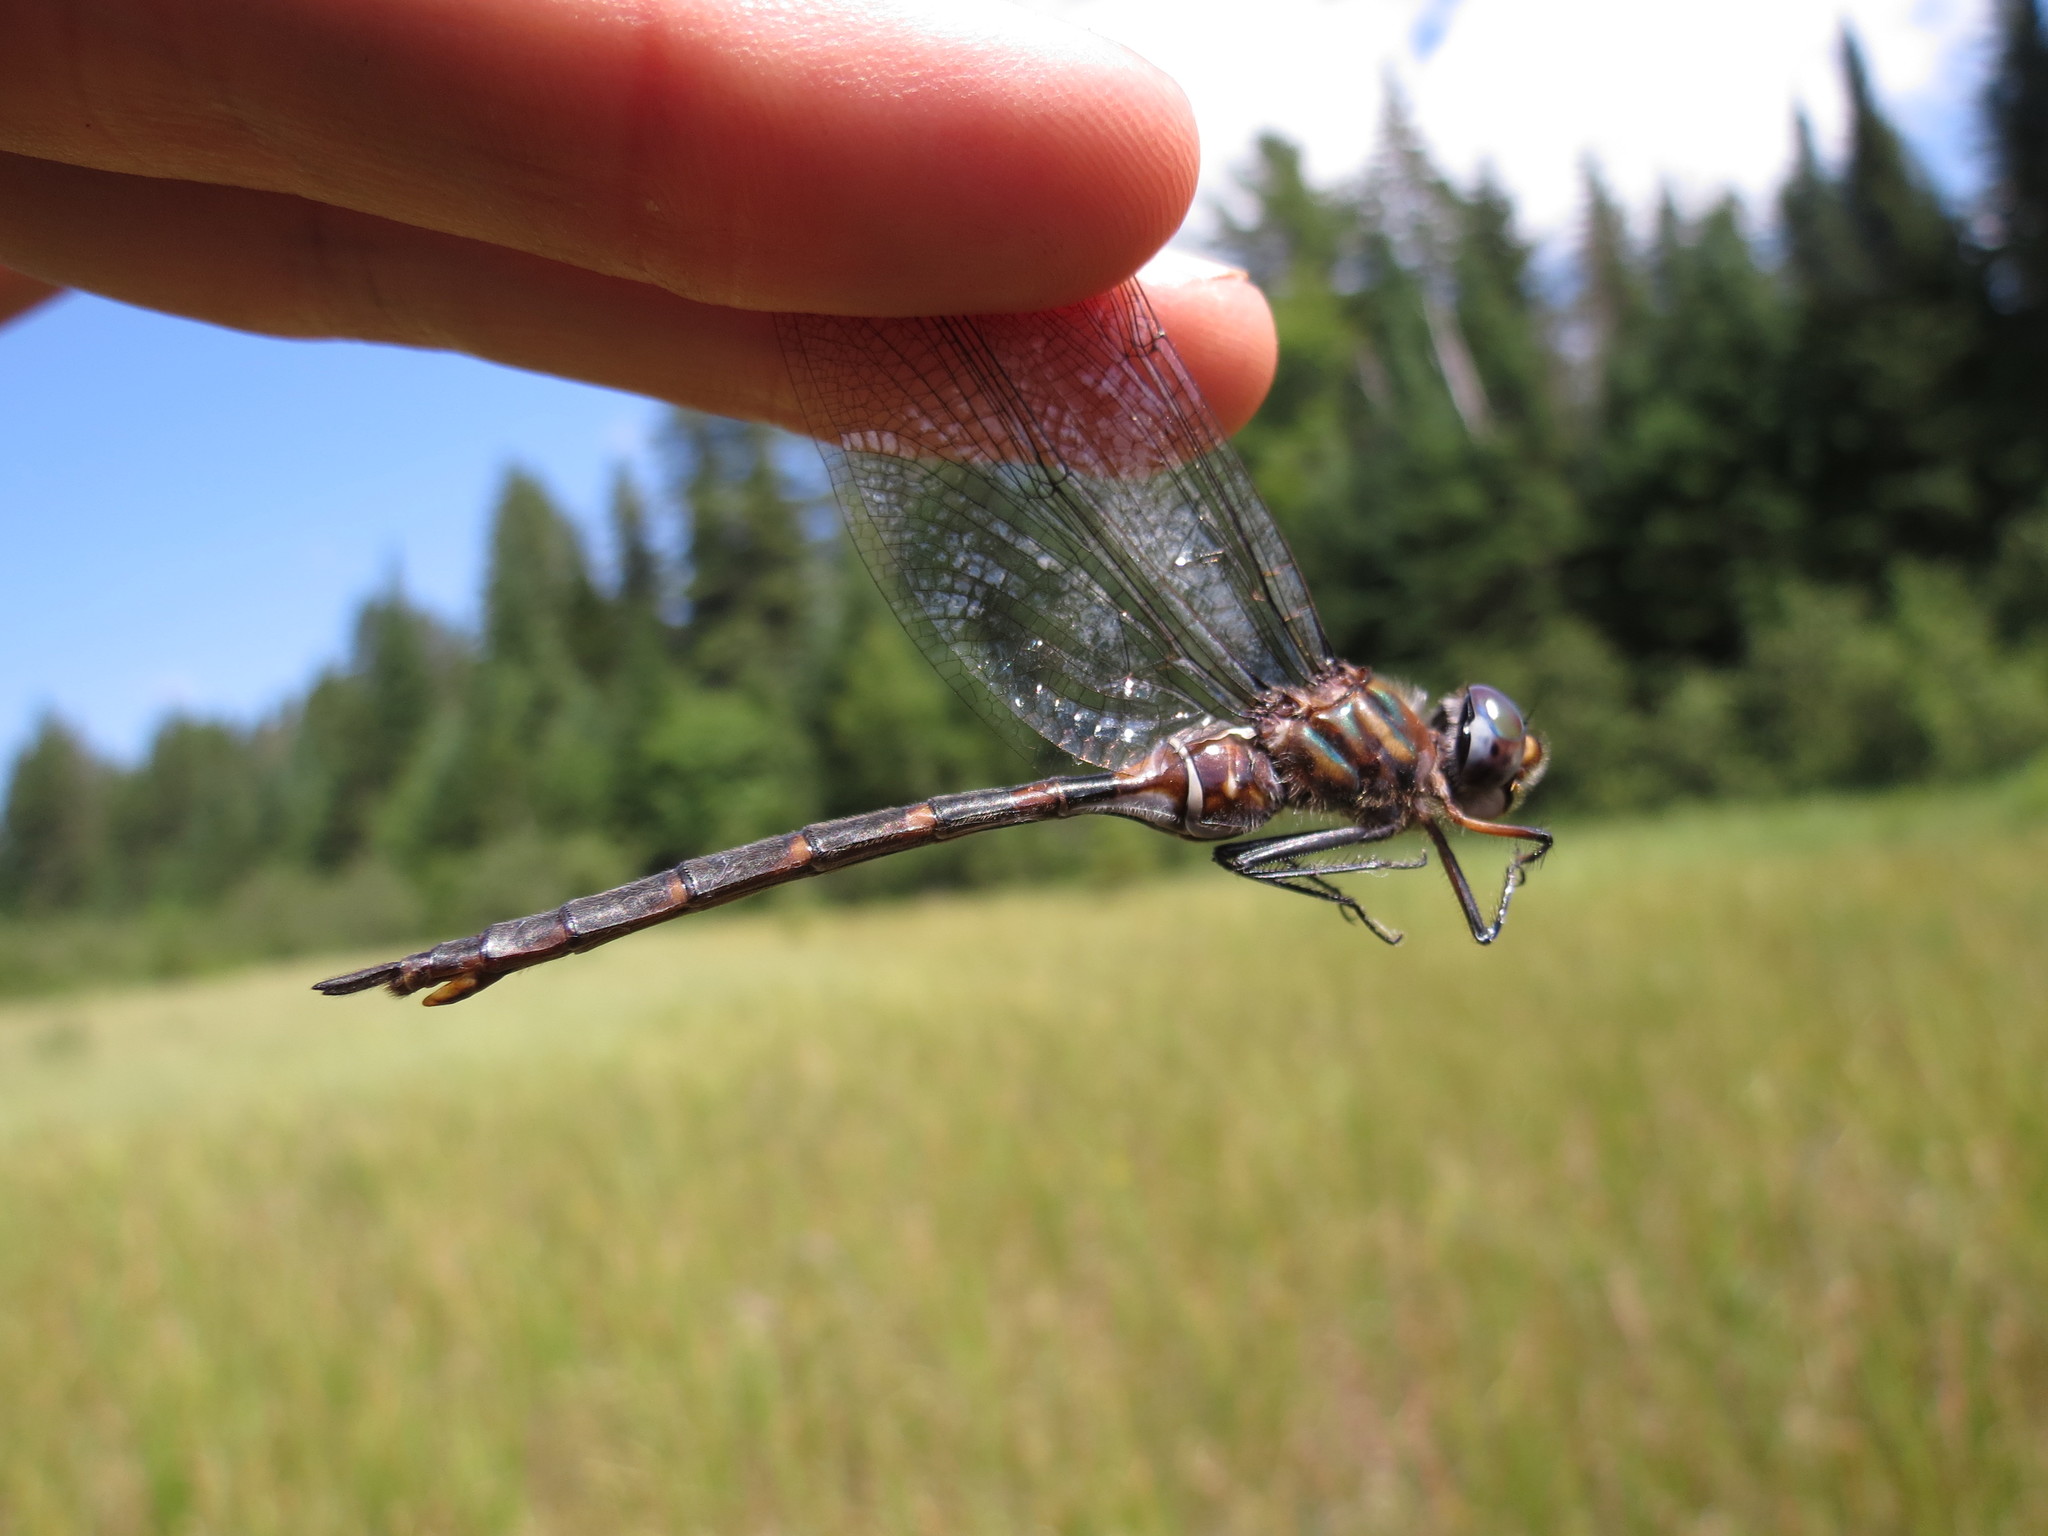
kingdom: Animalia
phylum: Arthropoda
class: Insecta
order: Odonata
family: Corduliidae
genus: Somatochlora
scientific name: Somatochlora incurvata
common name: Incurvate emerald
